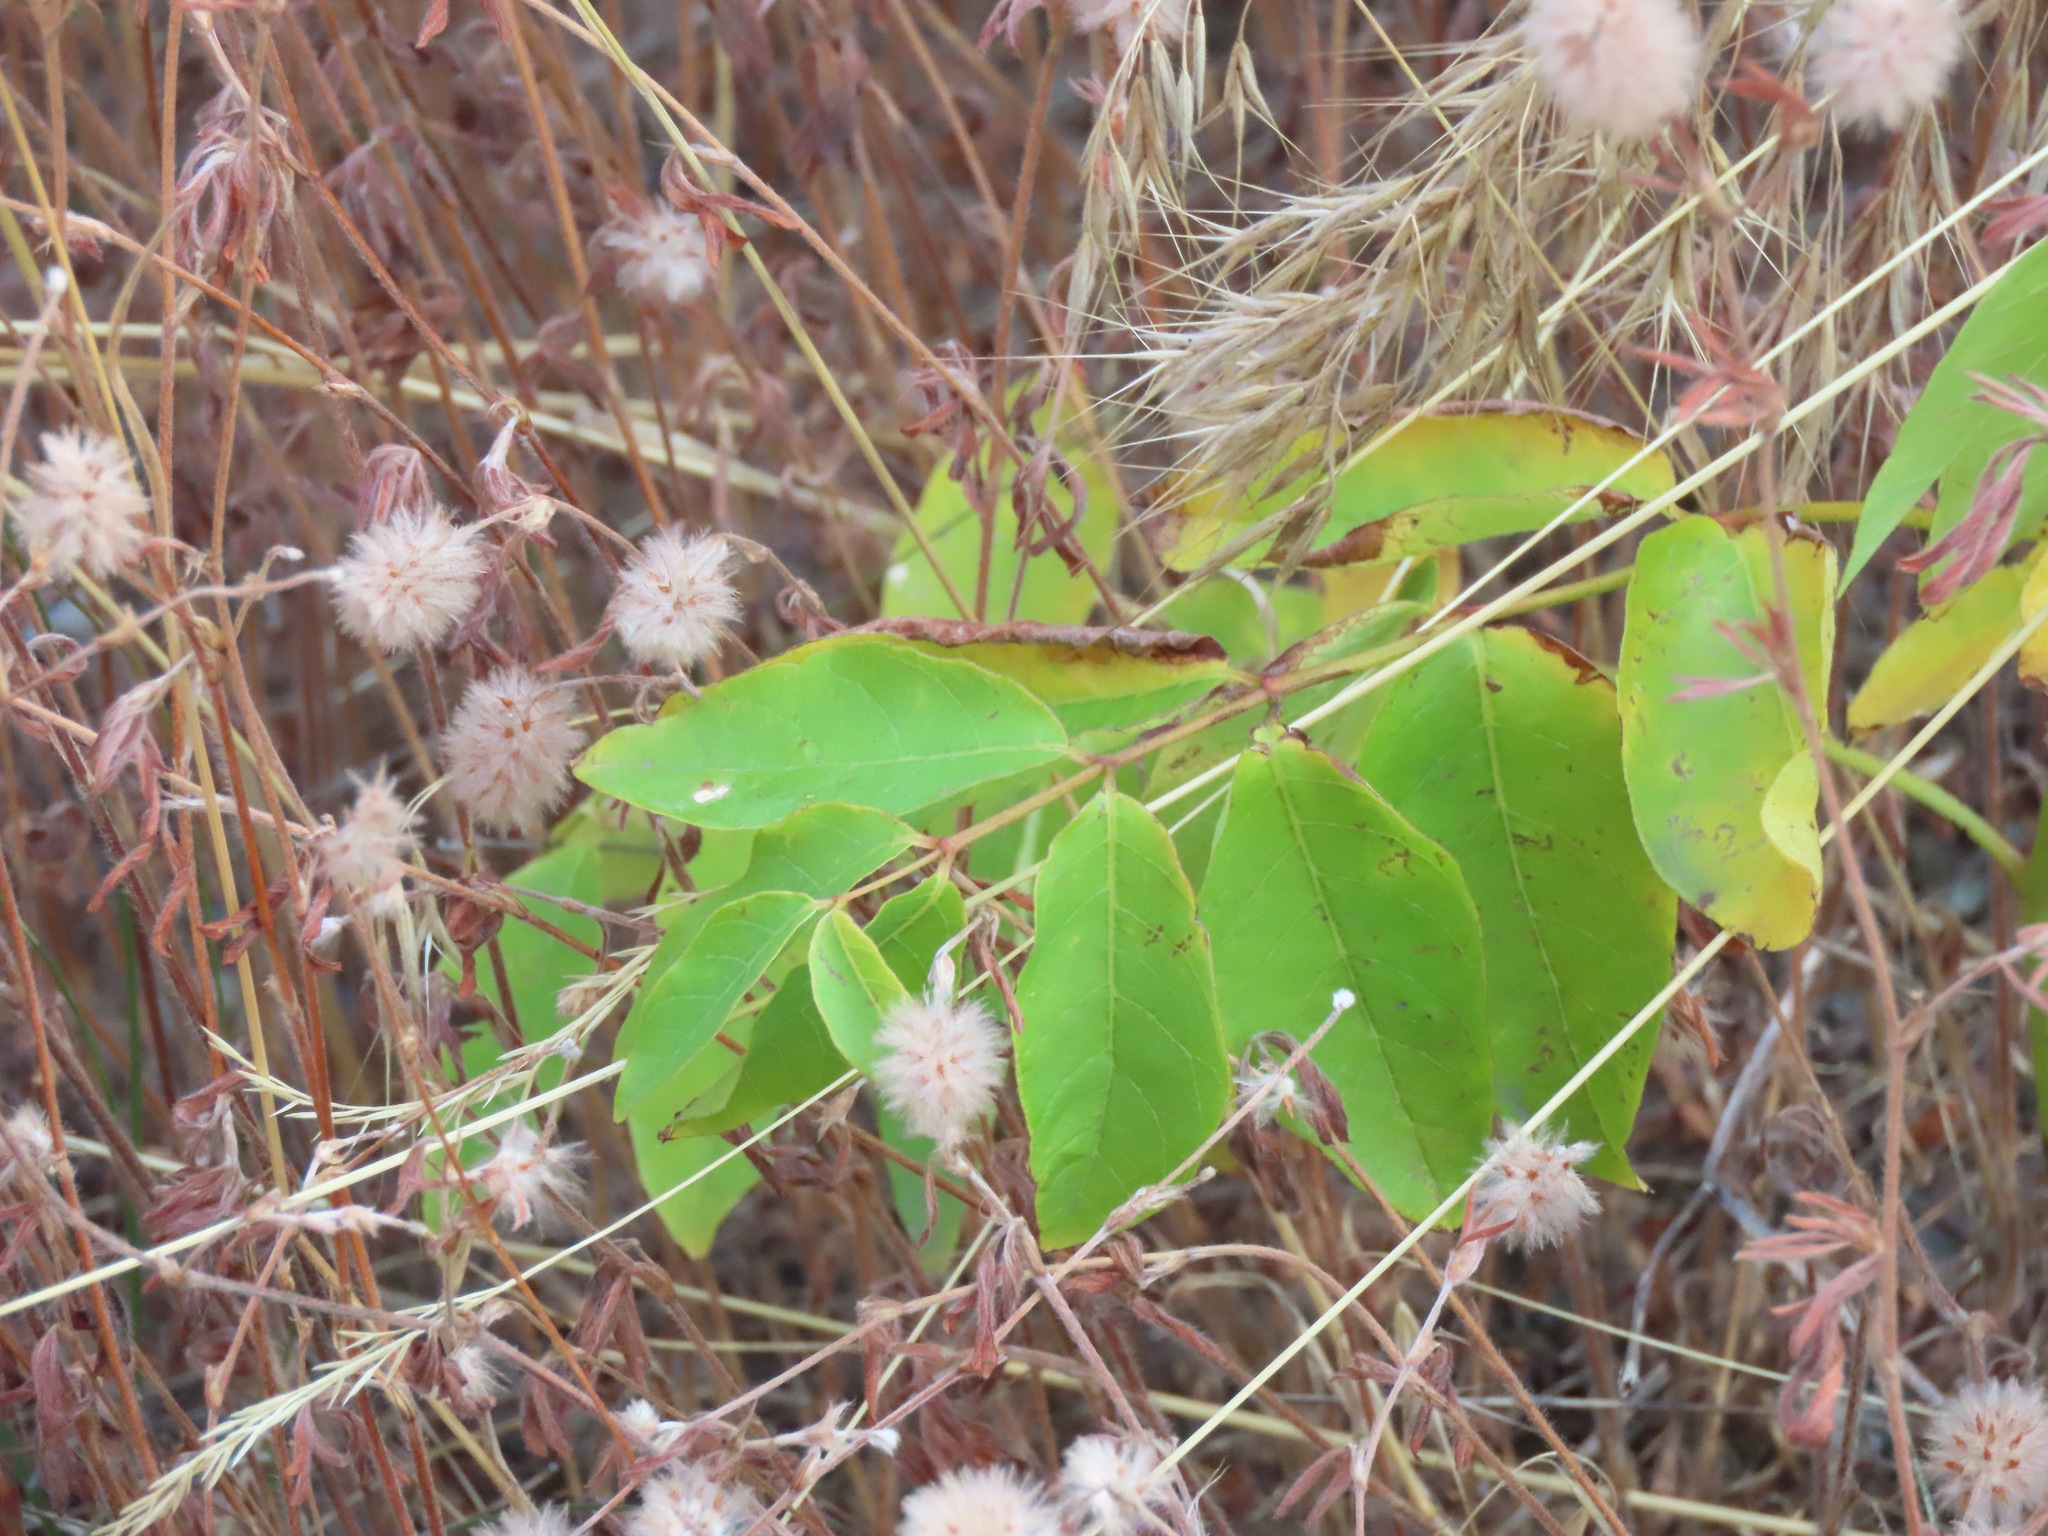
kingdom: Plantae
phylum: Tracheophyta
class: Magnoliopsida
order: Gentianales
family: Apocynaceae
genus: Apocynum
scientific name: Apocynum androsaemifolium
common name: Spreading dogbane
